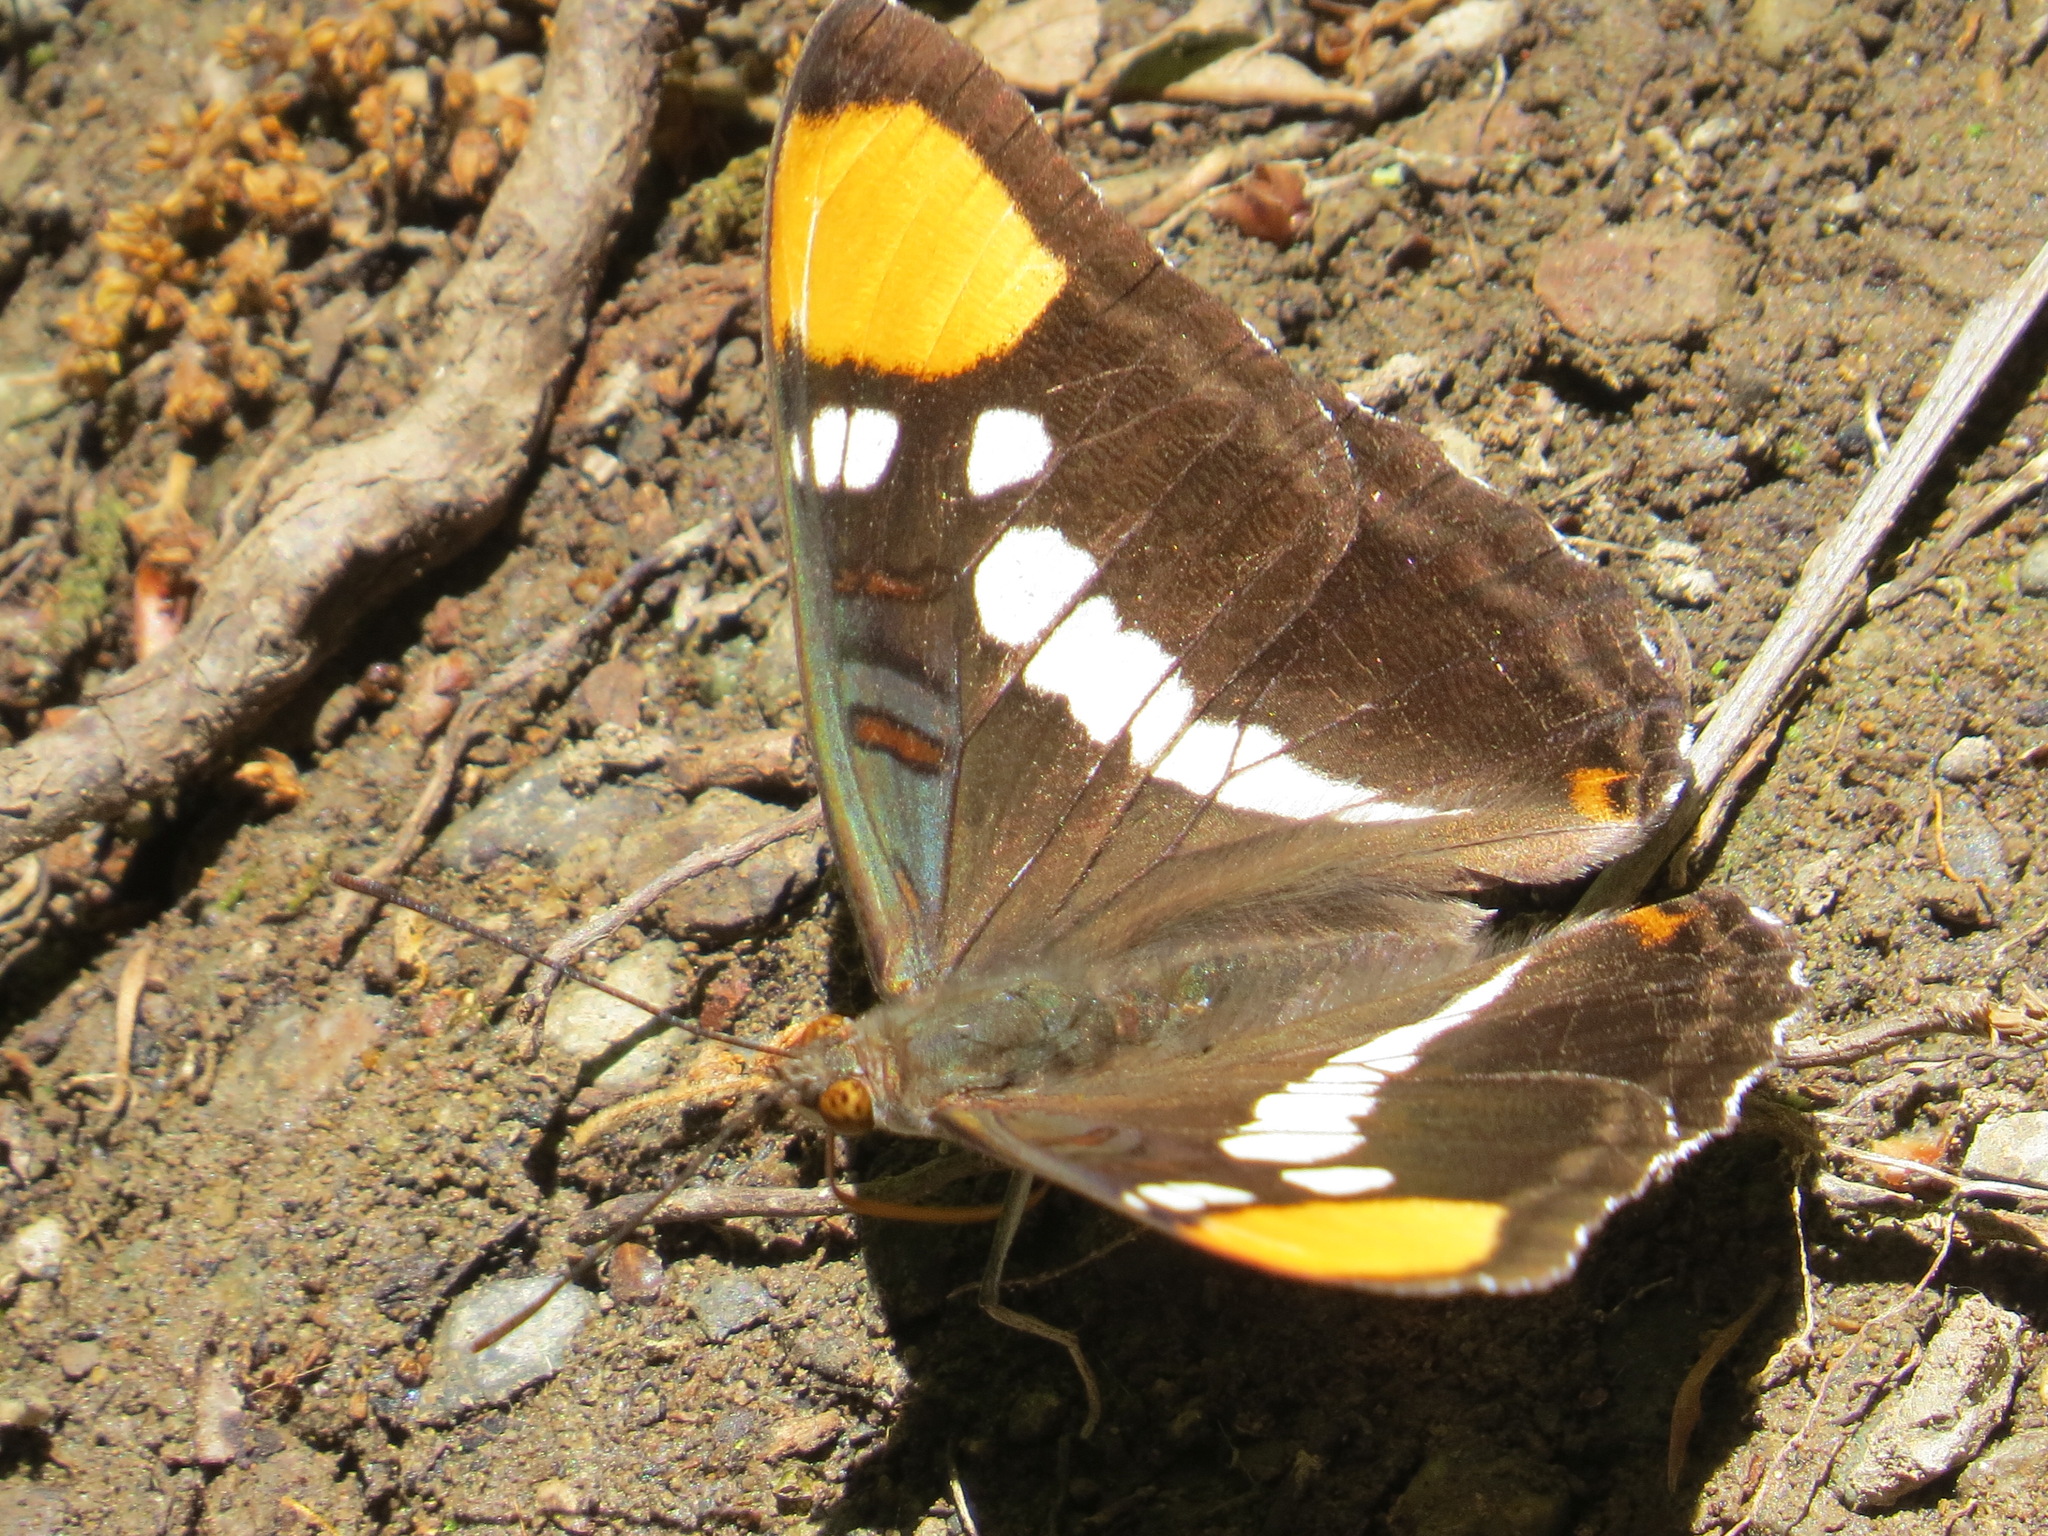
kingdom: Animalia
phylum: Arthropoda
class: Insecta
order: Lepidoptera
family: Nymphalidae
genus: Limenitis
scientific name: Limenitis bredowii
